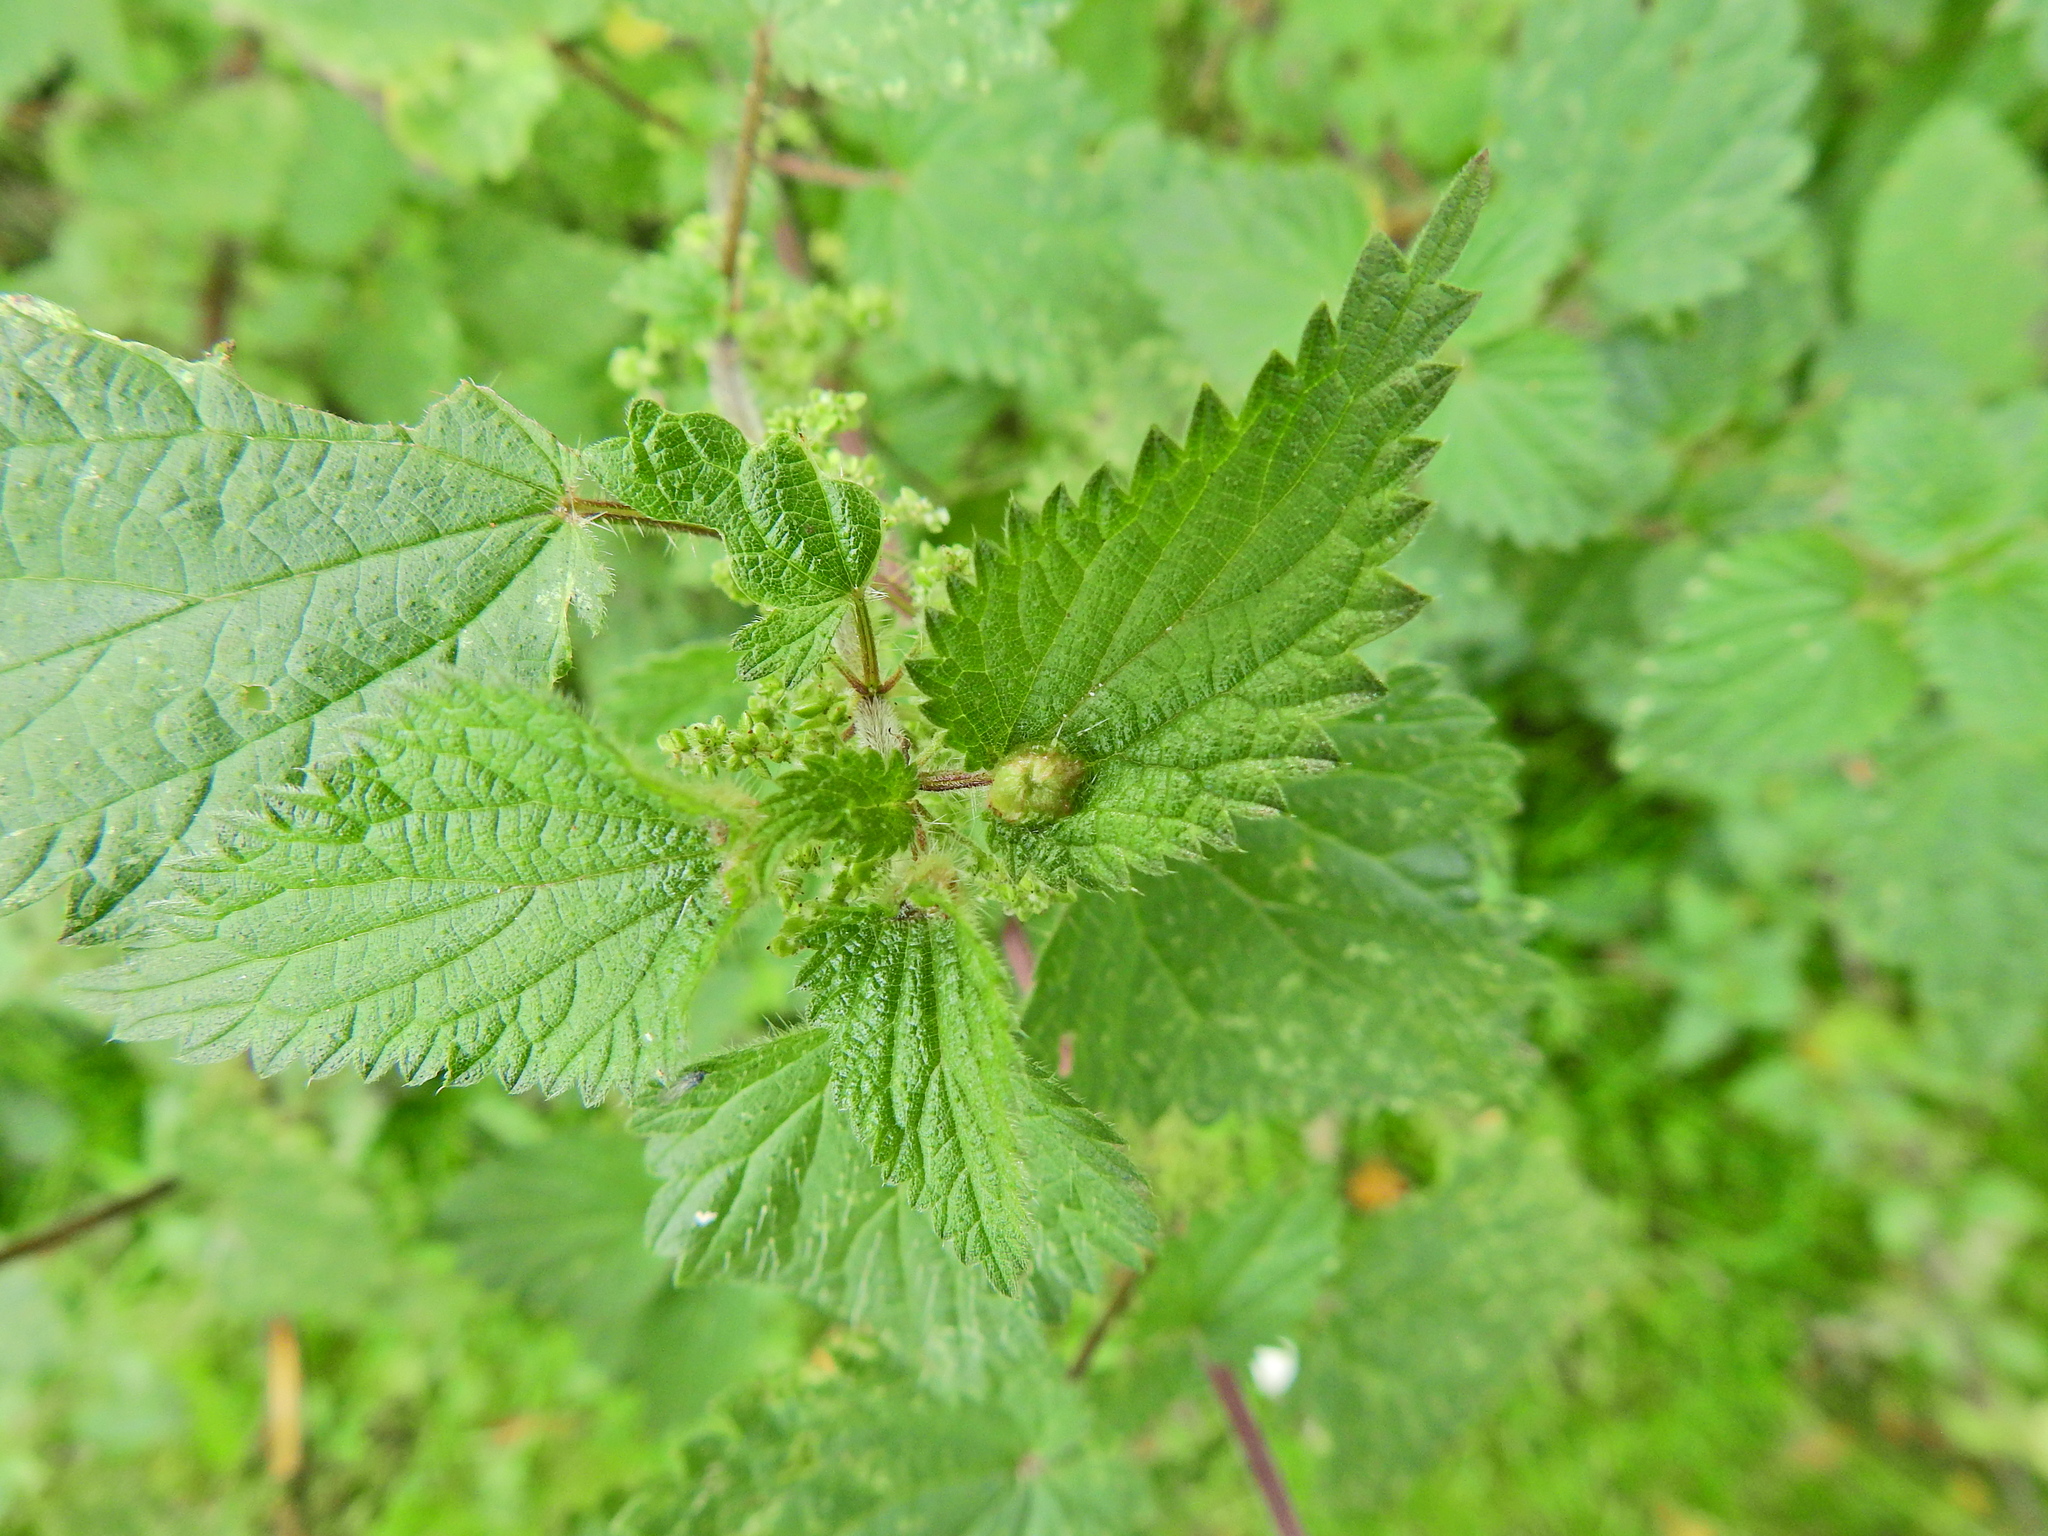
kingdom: Animalia
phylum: Arthropoda
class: Insecta
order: Diptera
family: Cecidomyiidae
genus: Dasineura
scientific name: Dasineura urticae
